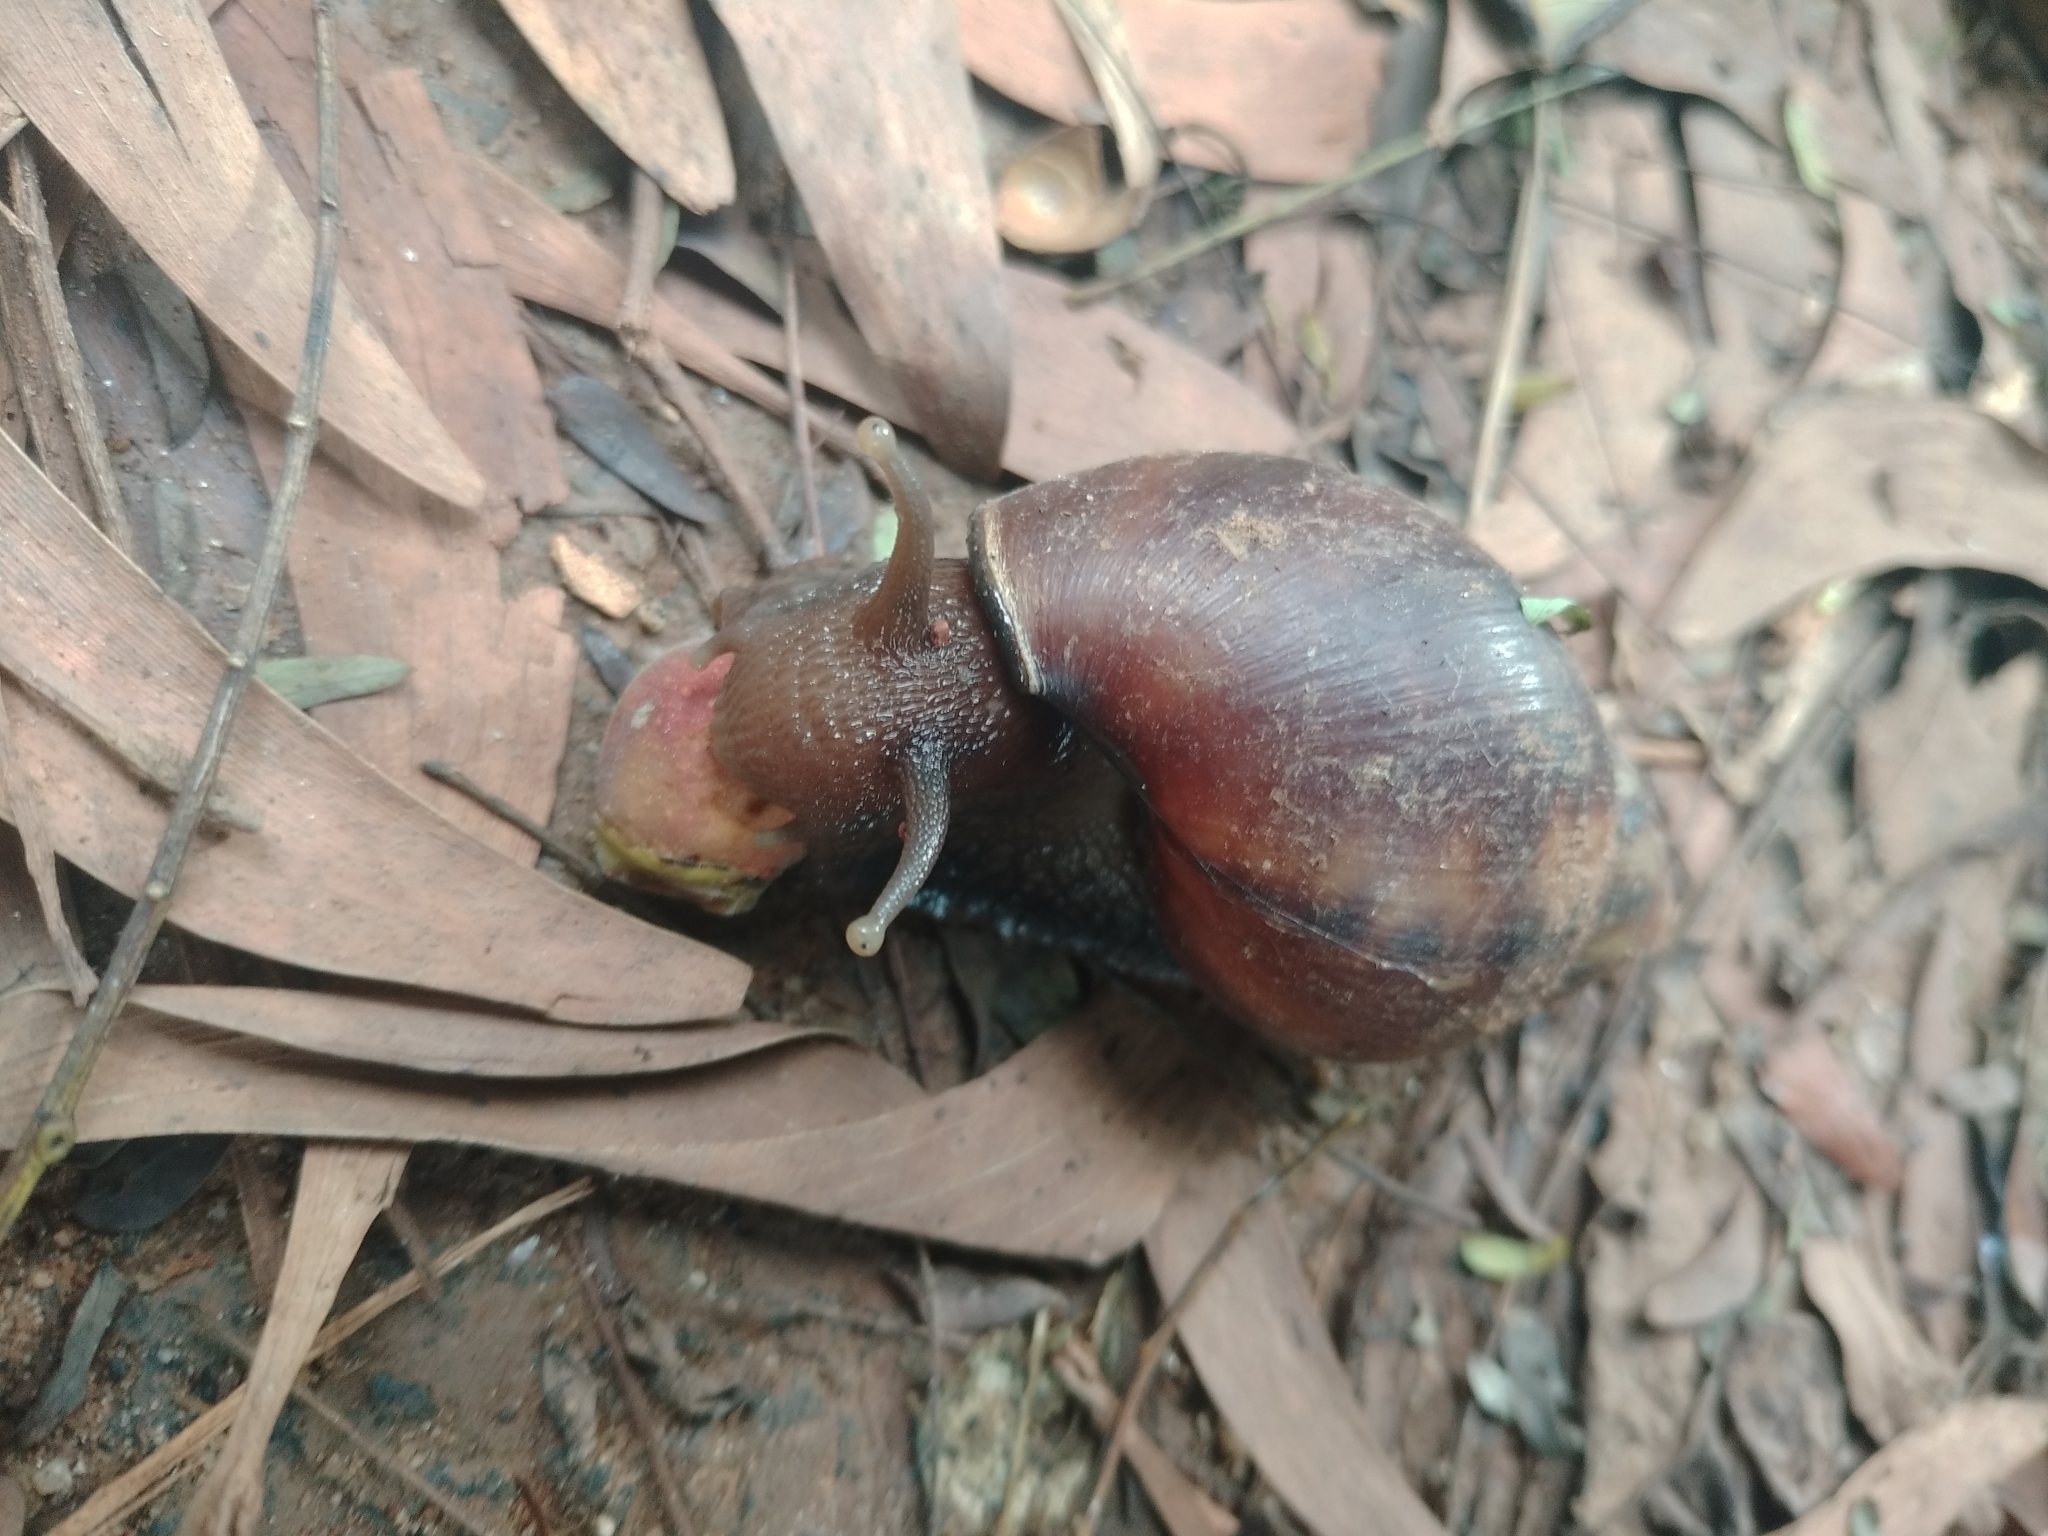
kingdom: Animalia
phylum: Mollusca
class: Gastropoda
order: Stylommatophora
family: Achatinidae
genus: Lissachatina
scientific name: Lissachatina fulica
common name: Giant african snail
